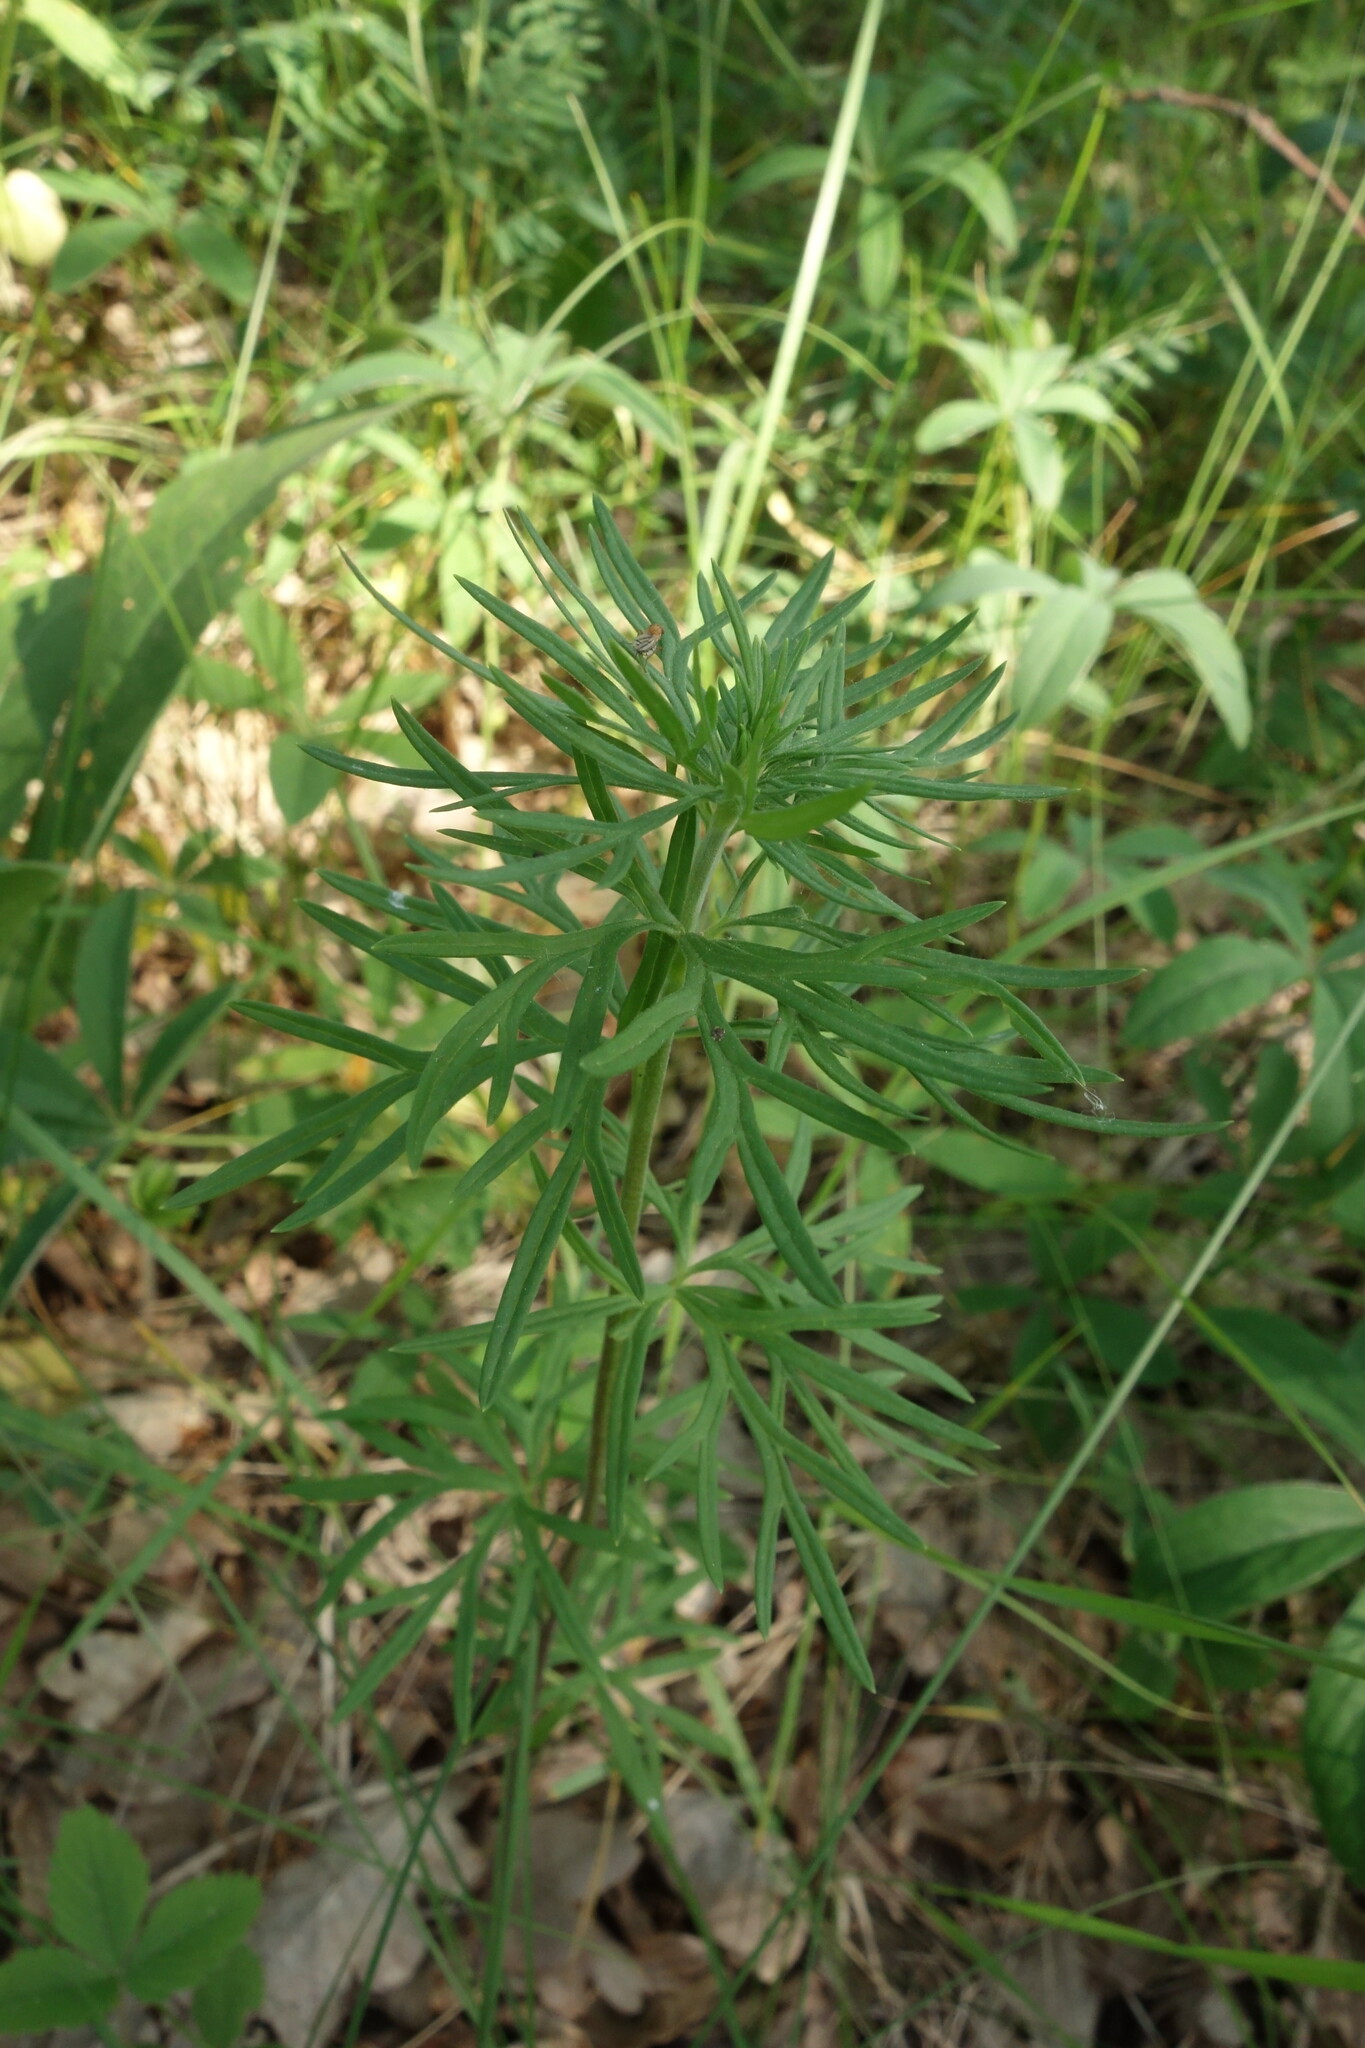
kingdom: Plantae
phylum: Tracheophyta
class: Magnoliopsida
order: Ranunculales
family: Ranunculaceae
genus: Aconitum
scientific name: Aconitum anthora
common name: Yellow monkshood
